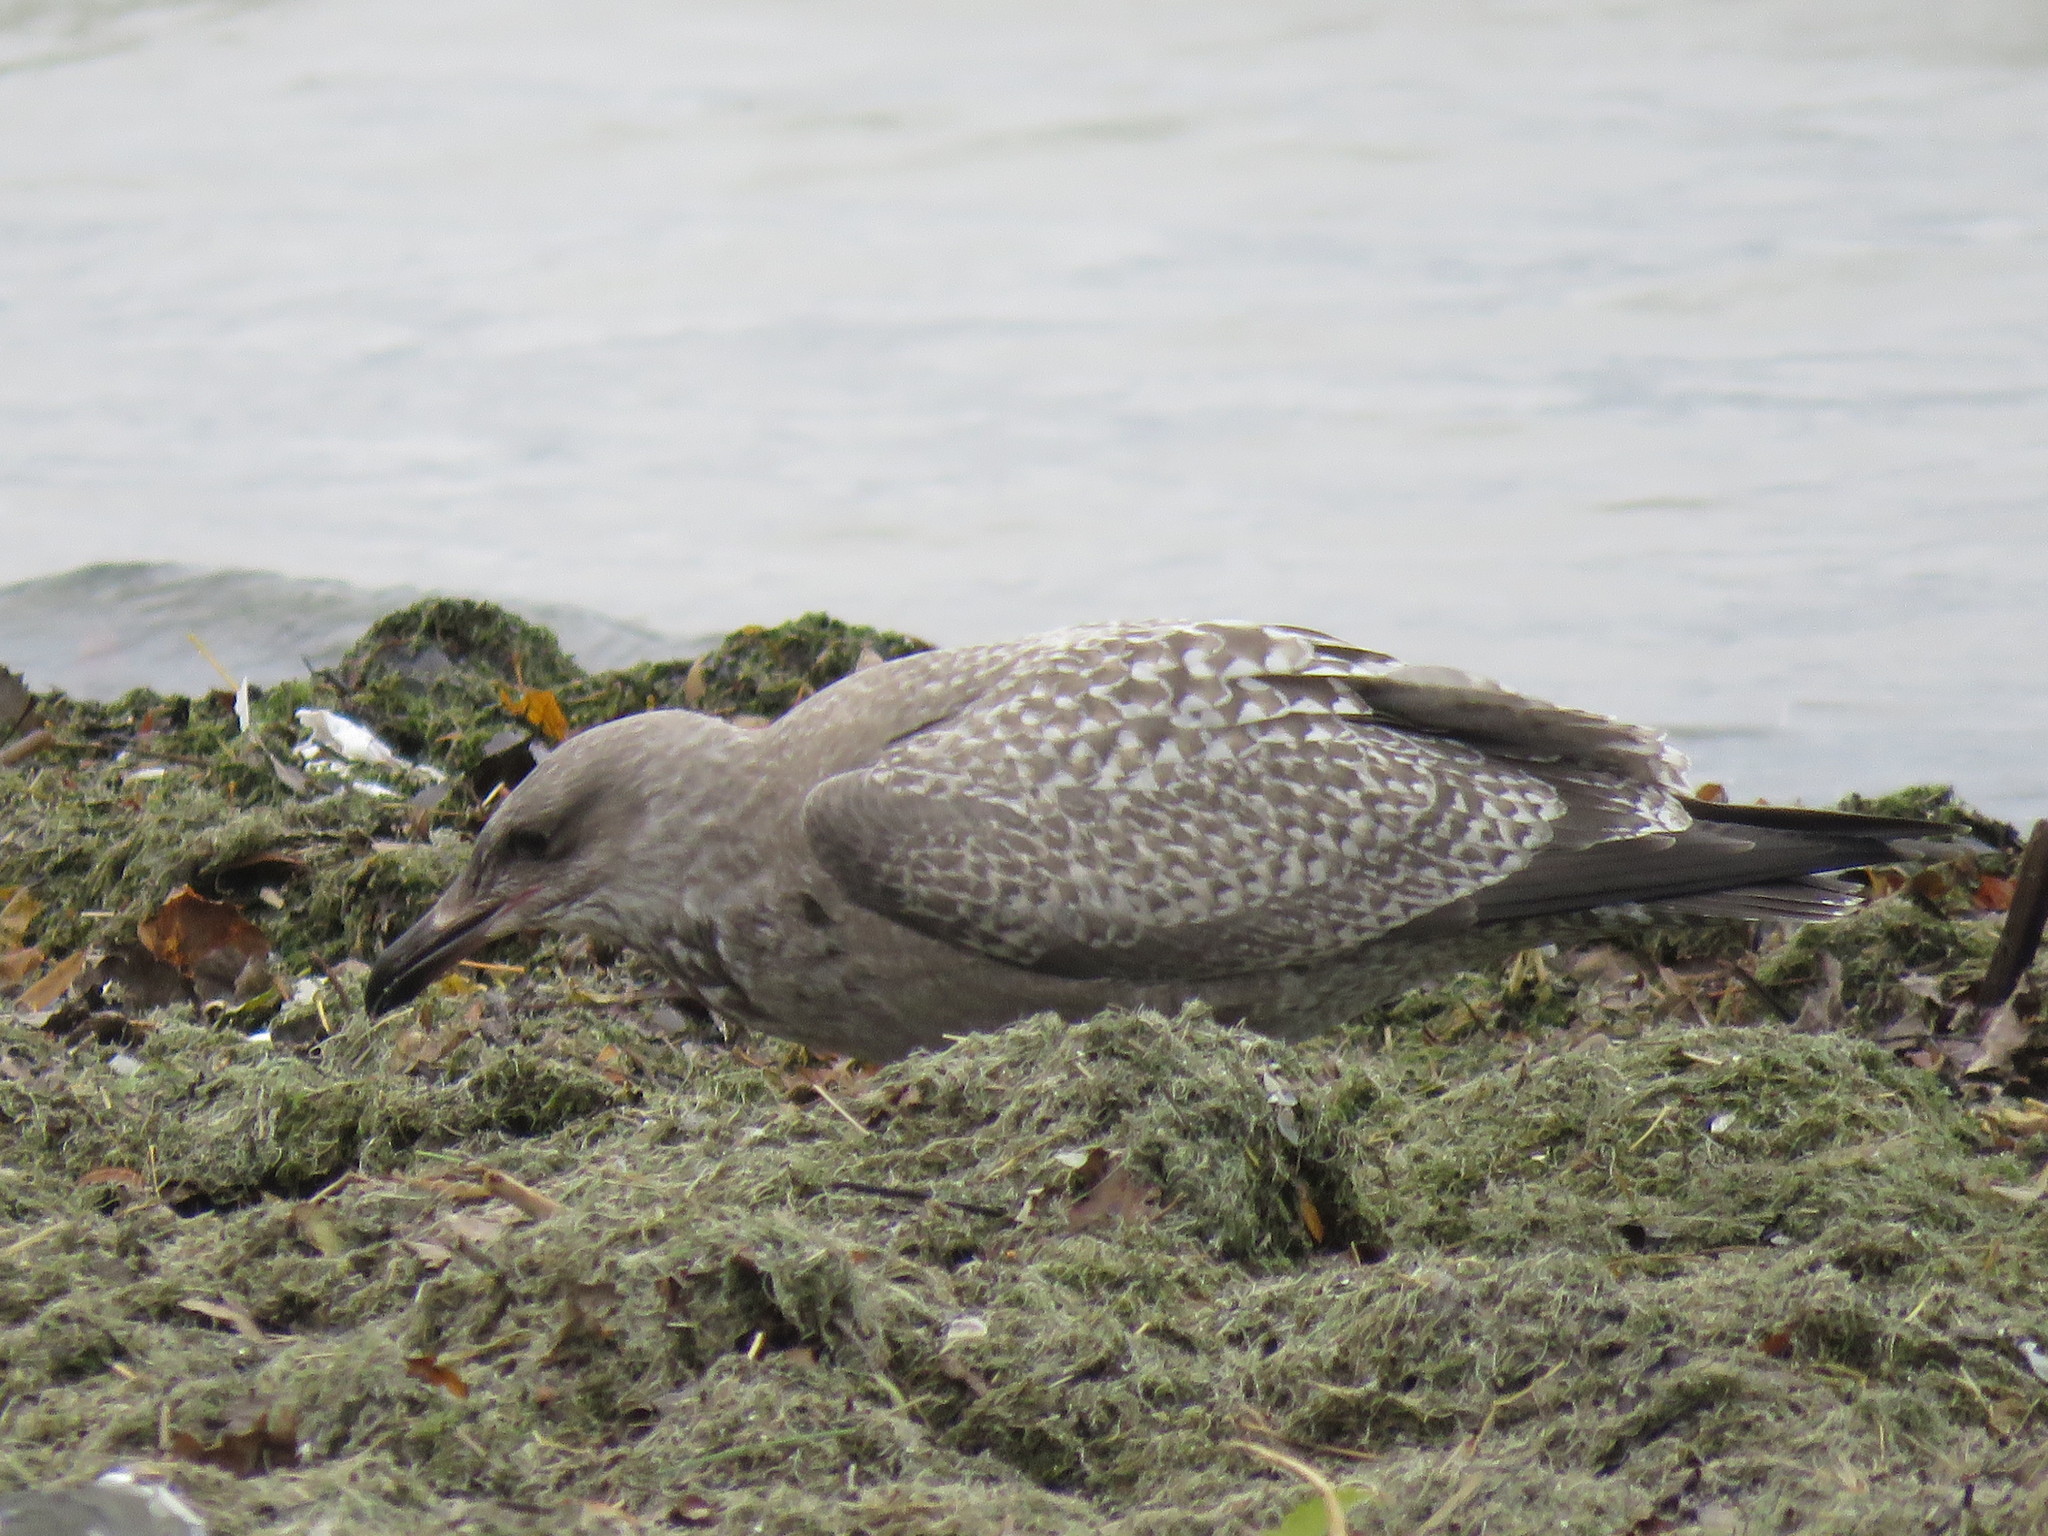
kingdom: Animalia
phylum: Chordata
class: Aves
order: Charadriiformes
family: Laridae
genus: Larus
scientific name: Larus argentatus
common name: Herring gull
